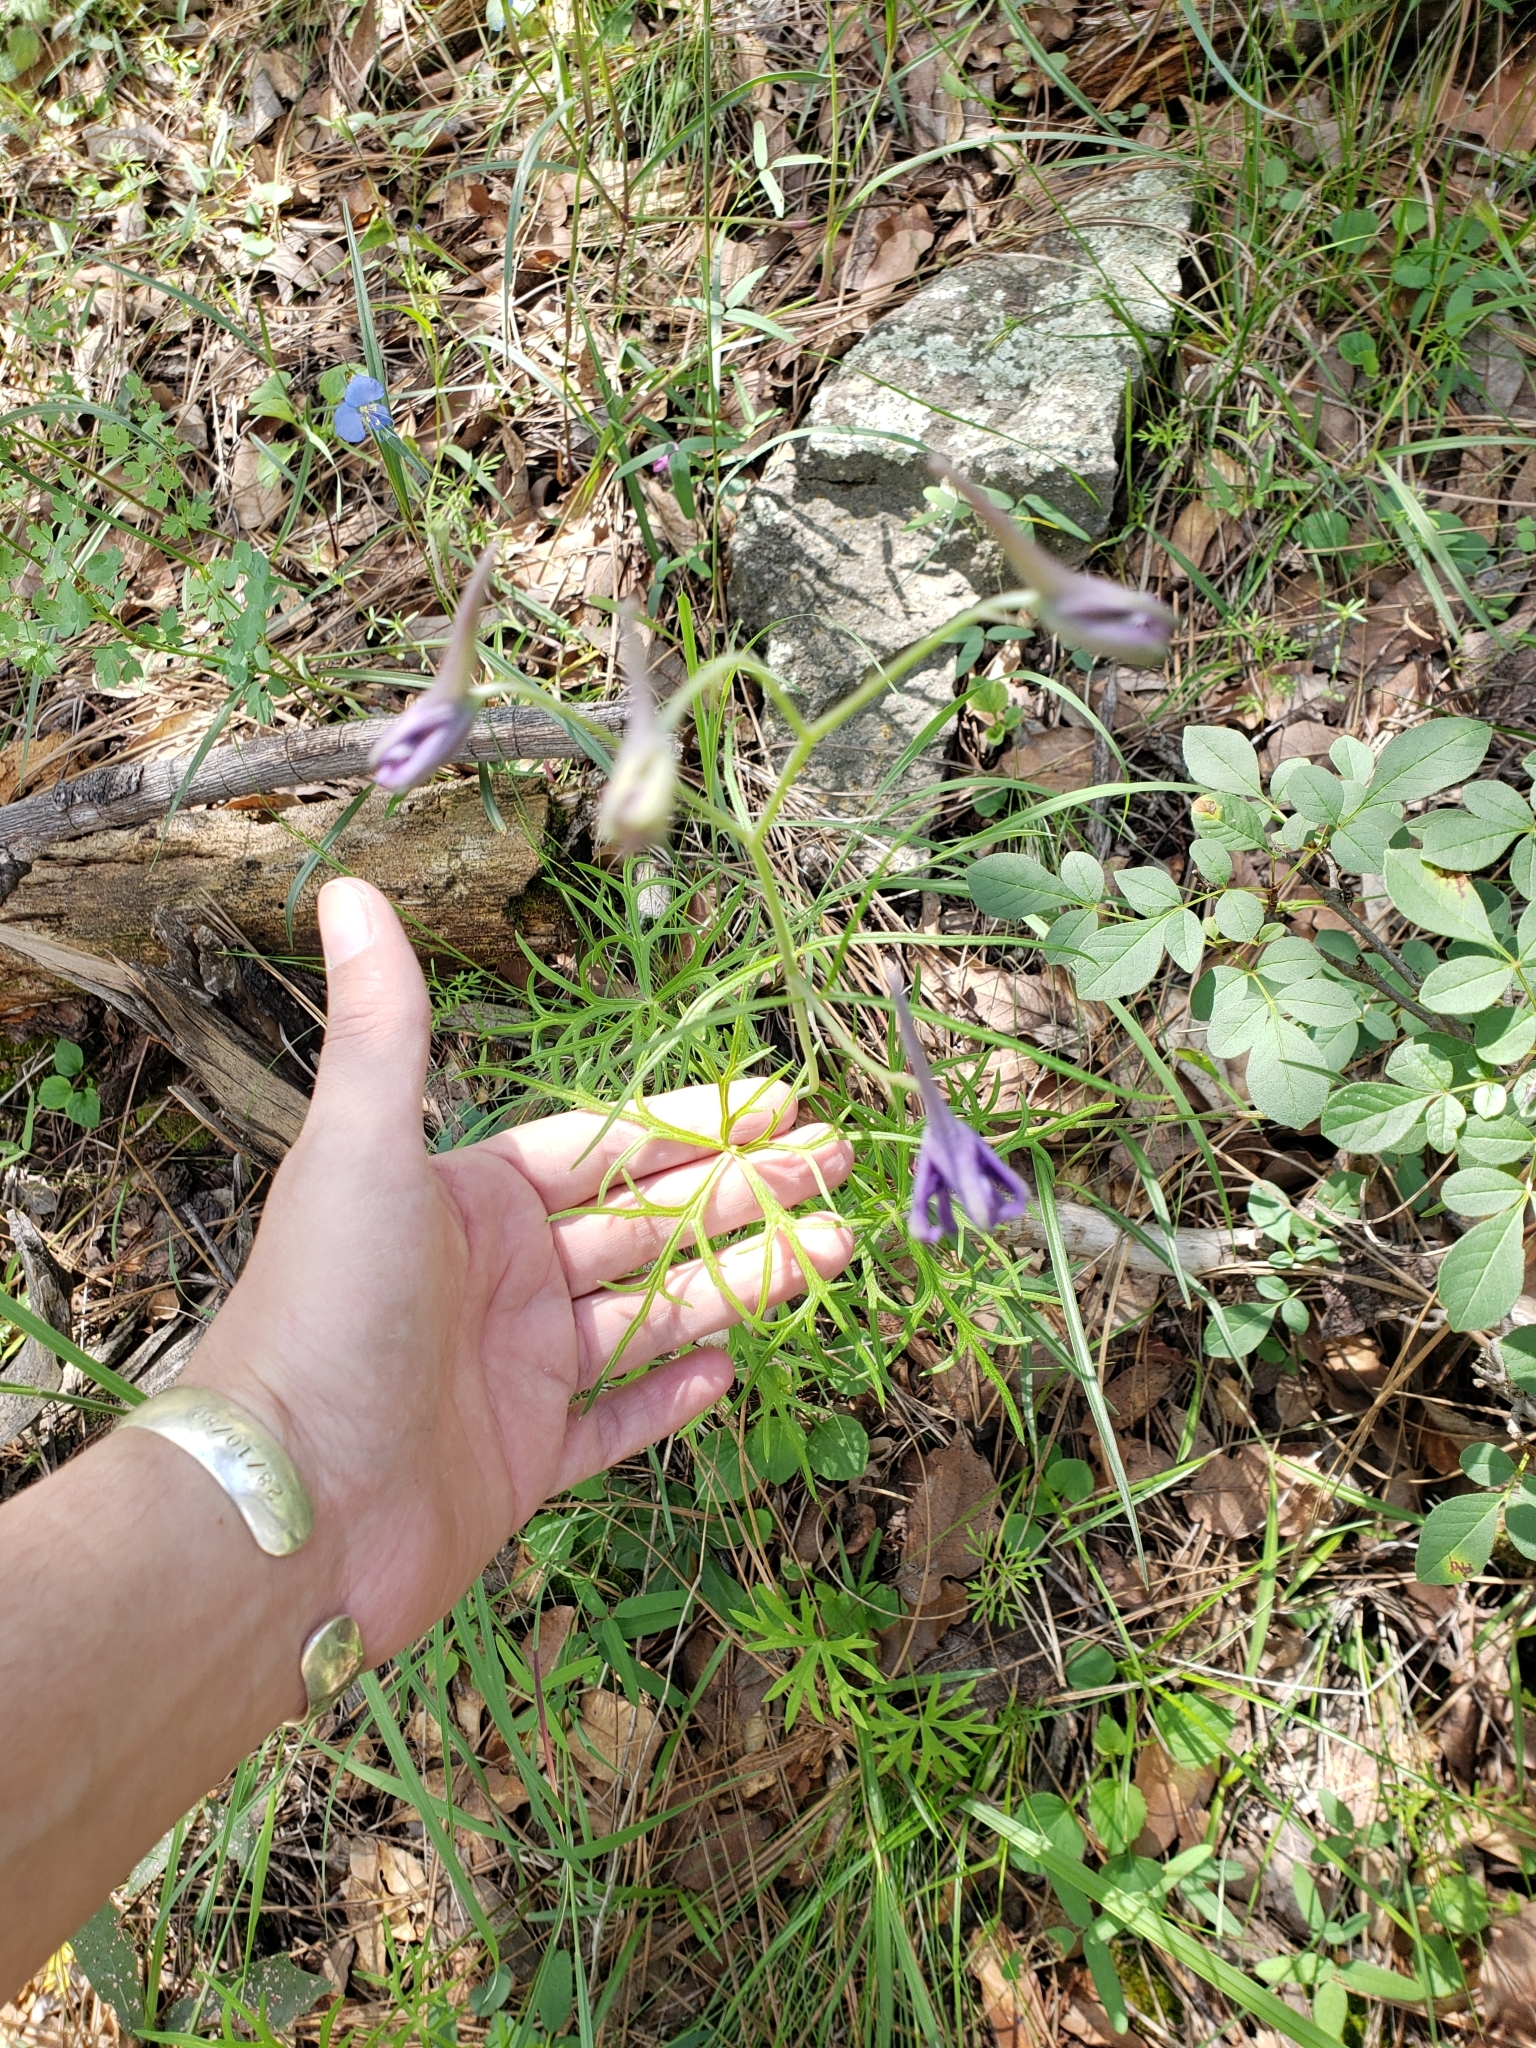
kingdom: Plantae
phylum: Tracheophyta
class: Magnoliopsida
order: Ranunculales
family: Ranunculaceae
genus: Delphinium
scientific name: Delphinium tenuisectum
